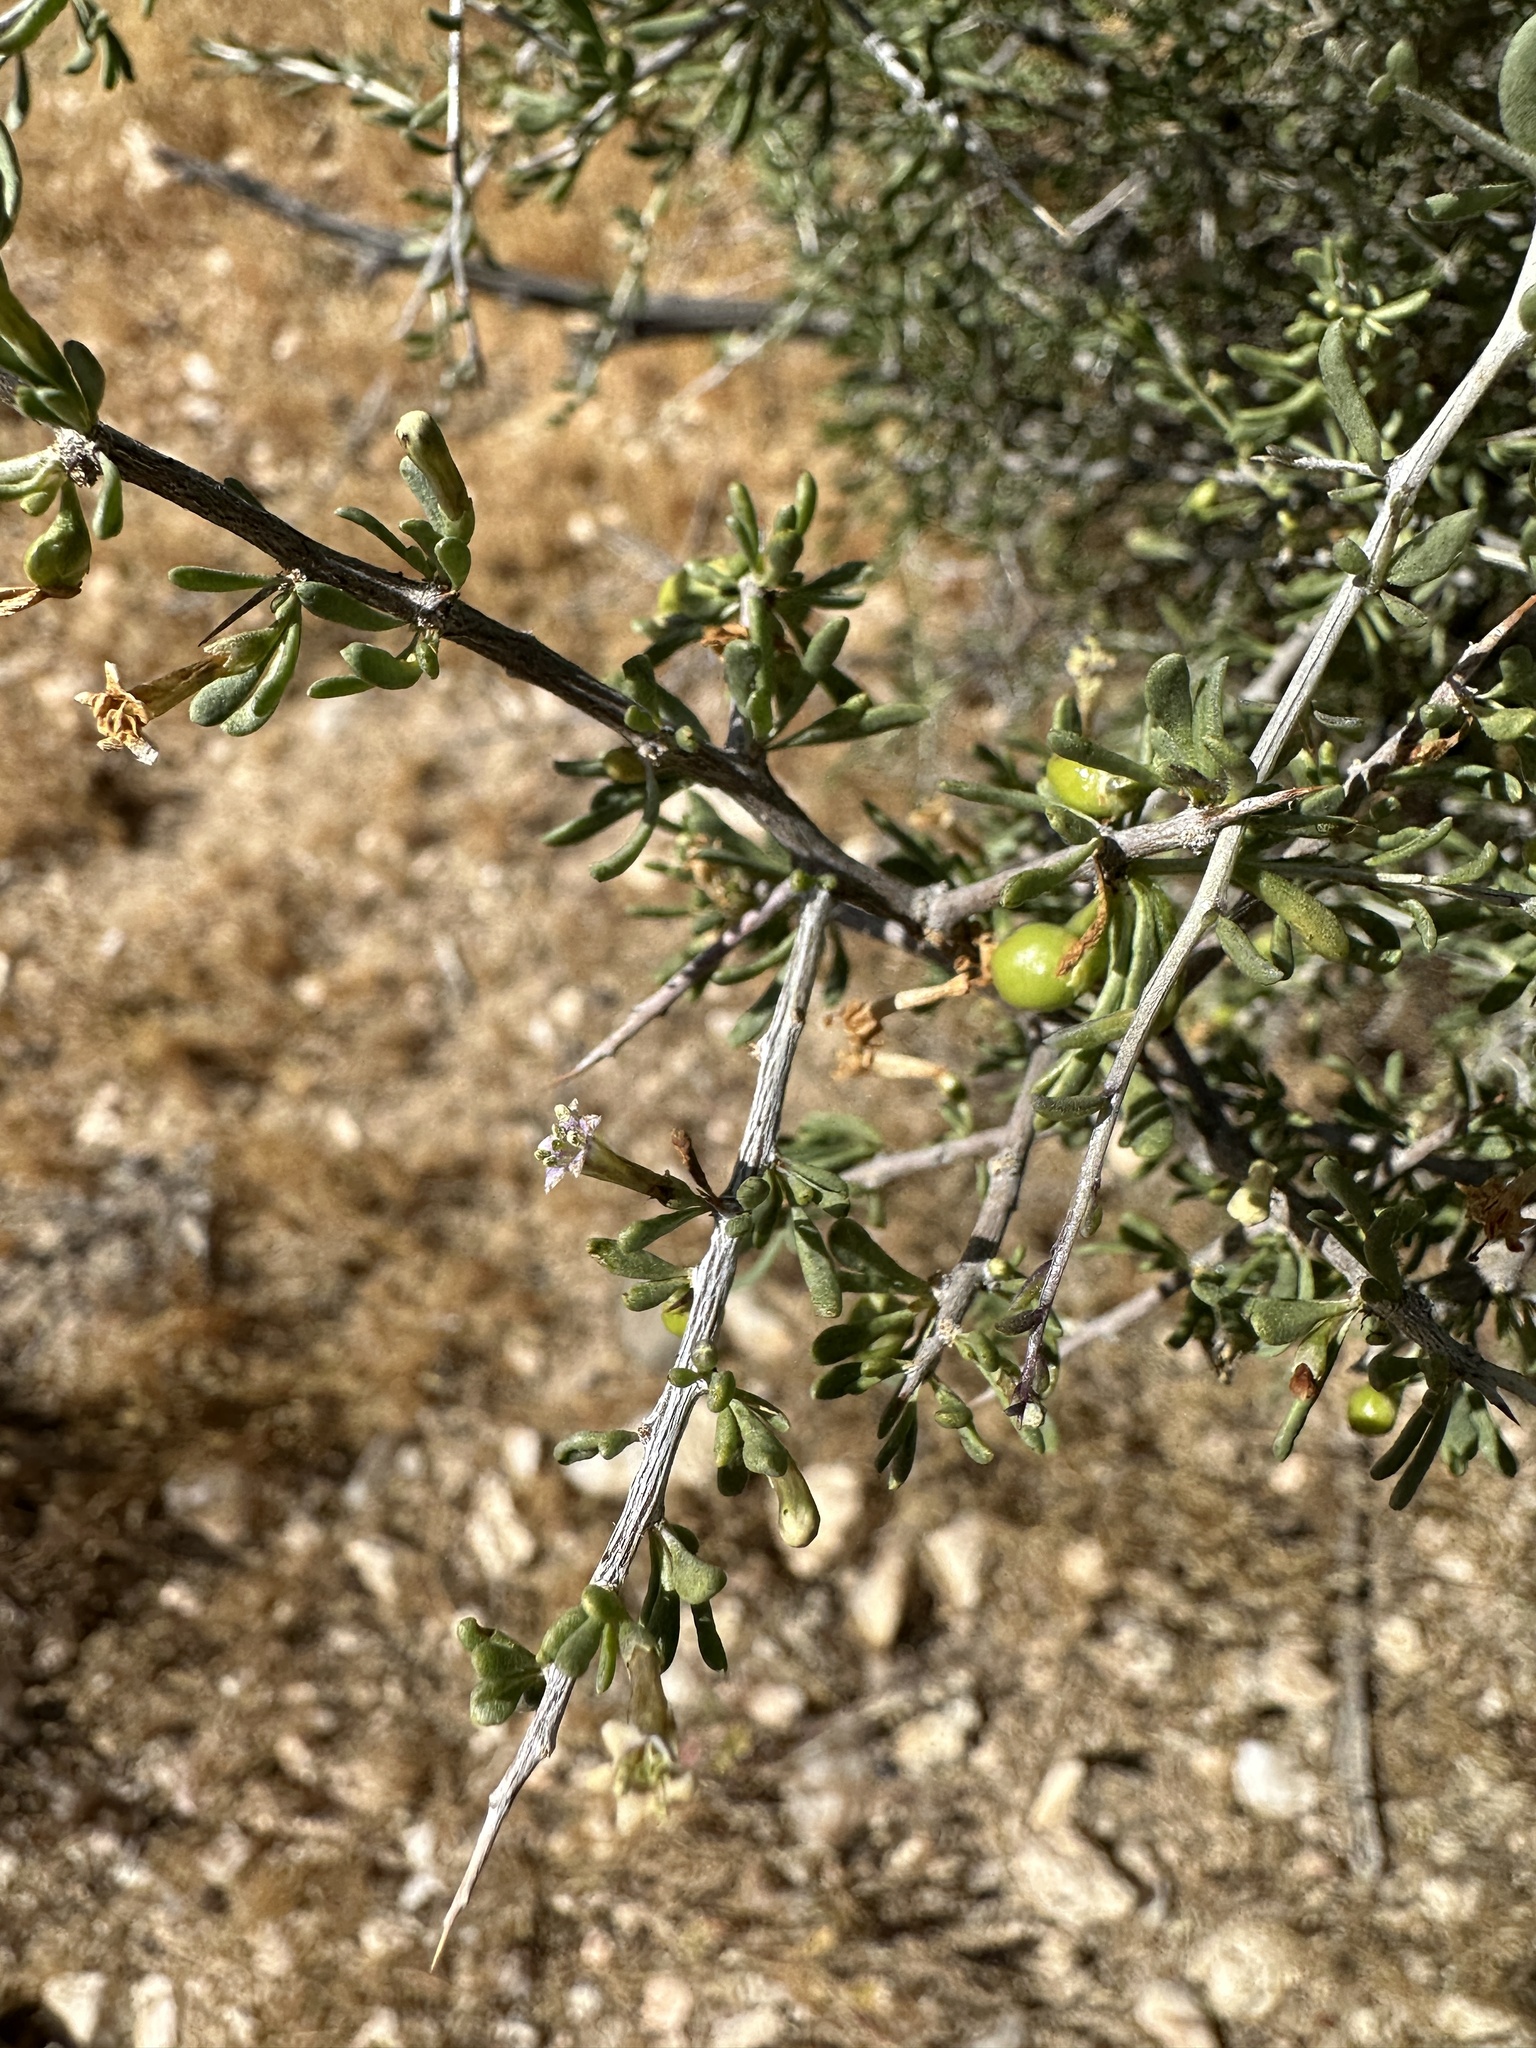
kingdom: Plantae
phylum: Tracheophyta
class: Magnoliopsida
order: Solanales
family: Solanaceae
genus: Lycium
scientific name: Lycium andersonii
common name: Water-jacket
